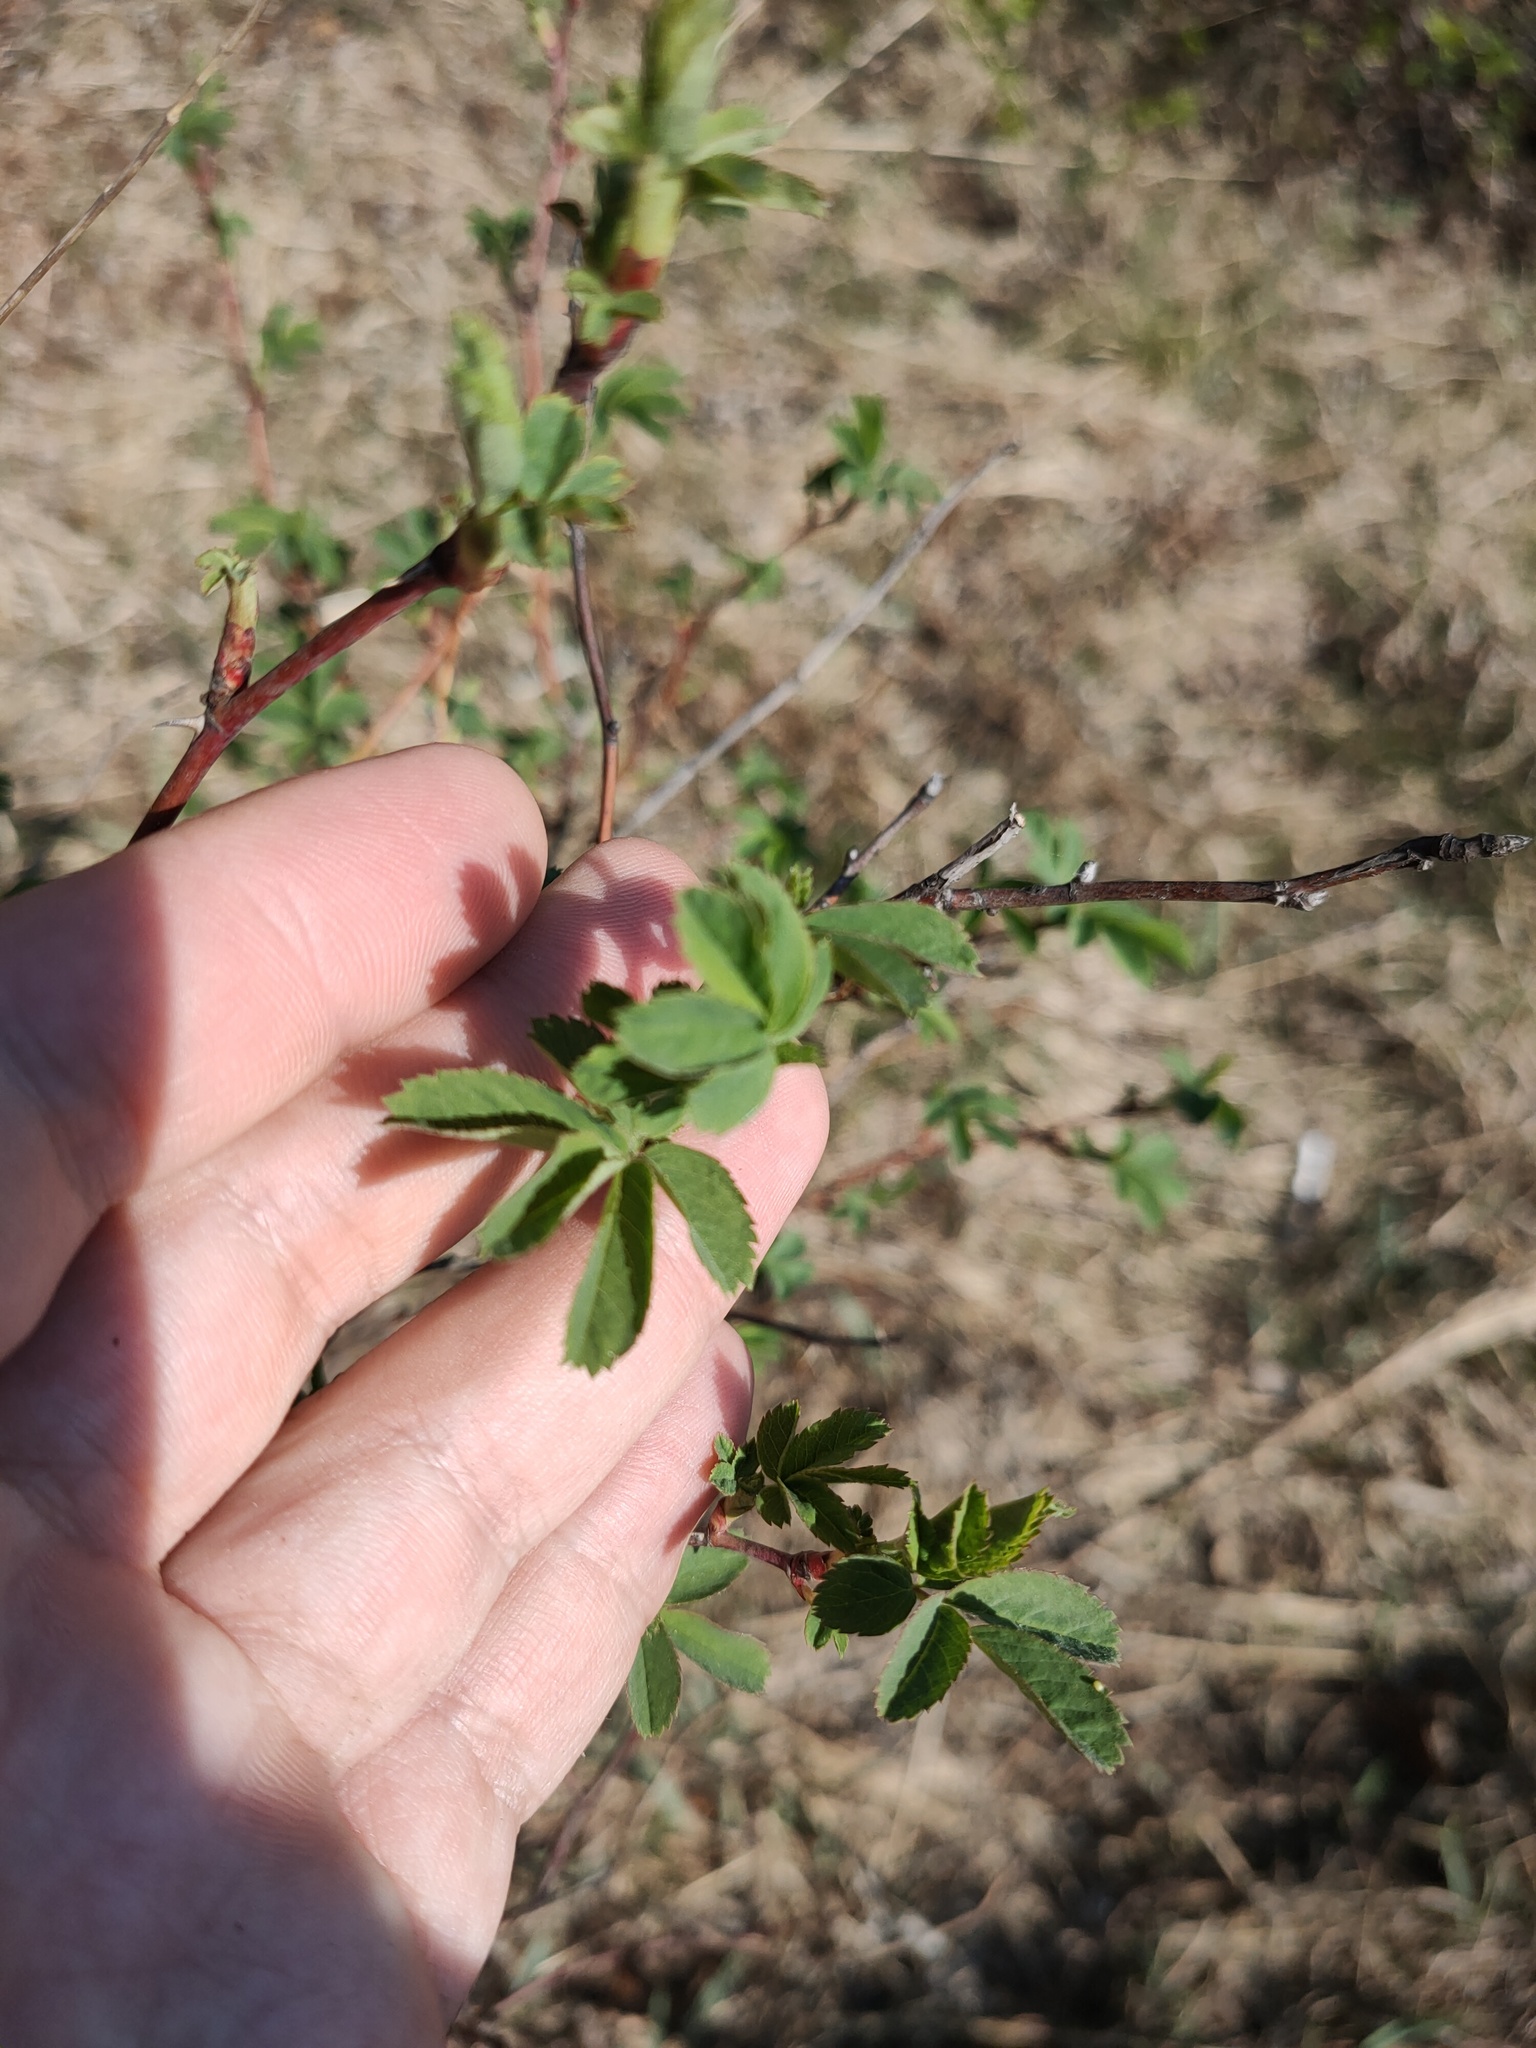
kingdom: Plantae
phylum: Tracheophyta
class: Magnoliopsida
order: Rosales
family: Rosaceae
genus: Rosa
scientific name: Rosa
